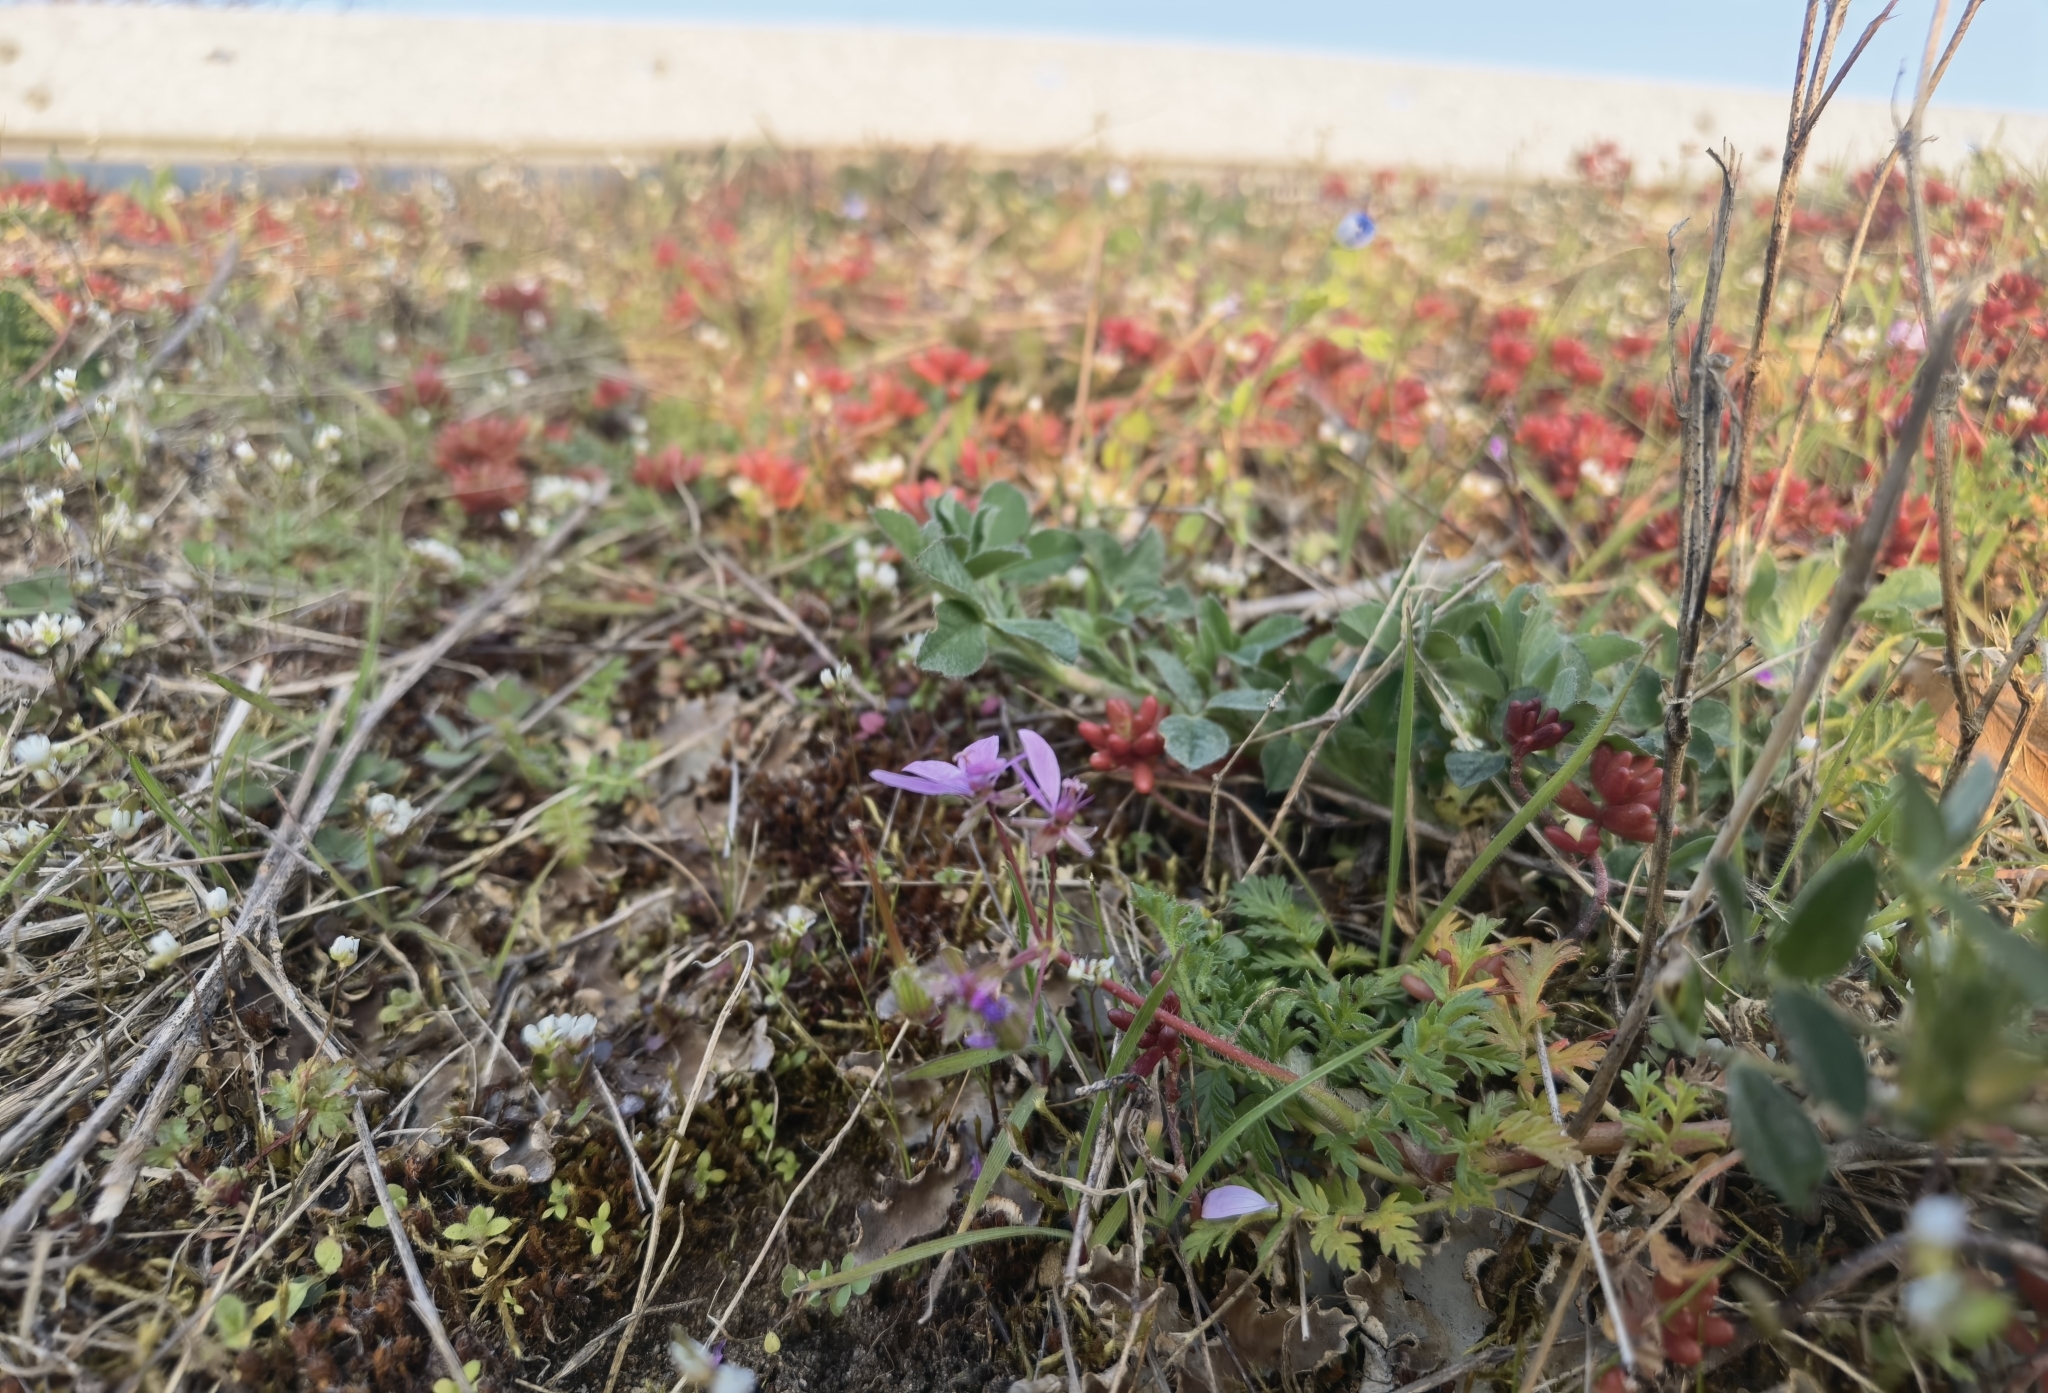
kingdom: Plantae
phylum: Tracheophyta
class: Magnoliopsida
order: Geraniales
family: Geraniaceae
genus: Erodium
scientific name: Erodium cicutarium
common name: Common stork's-bill
